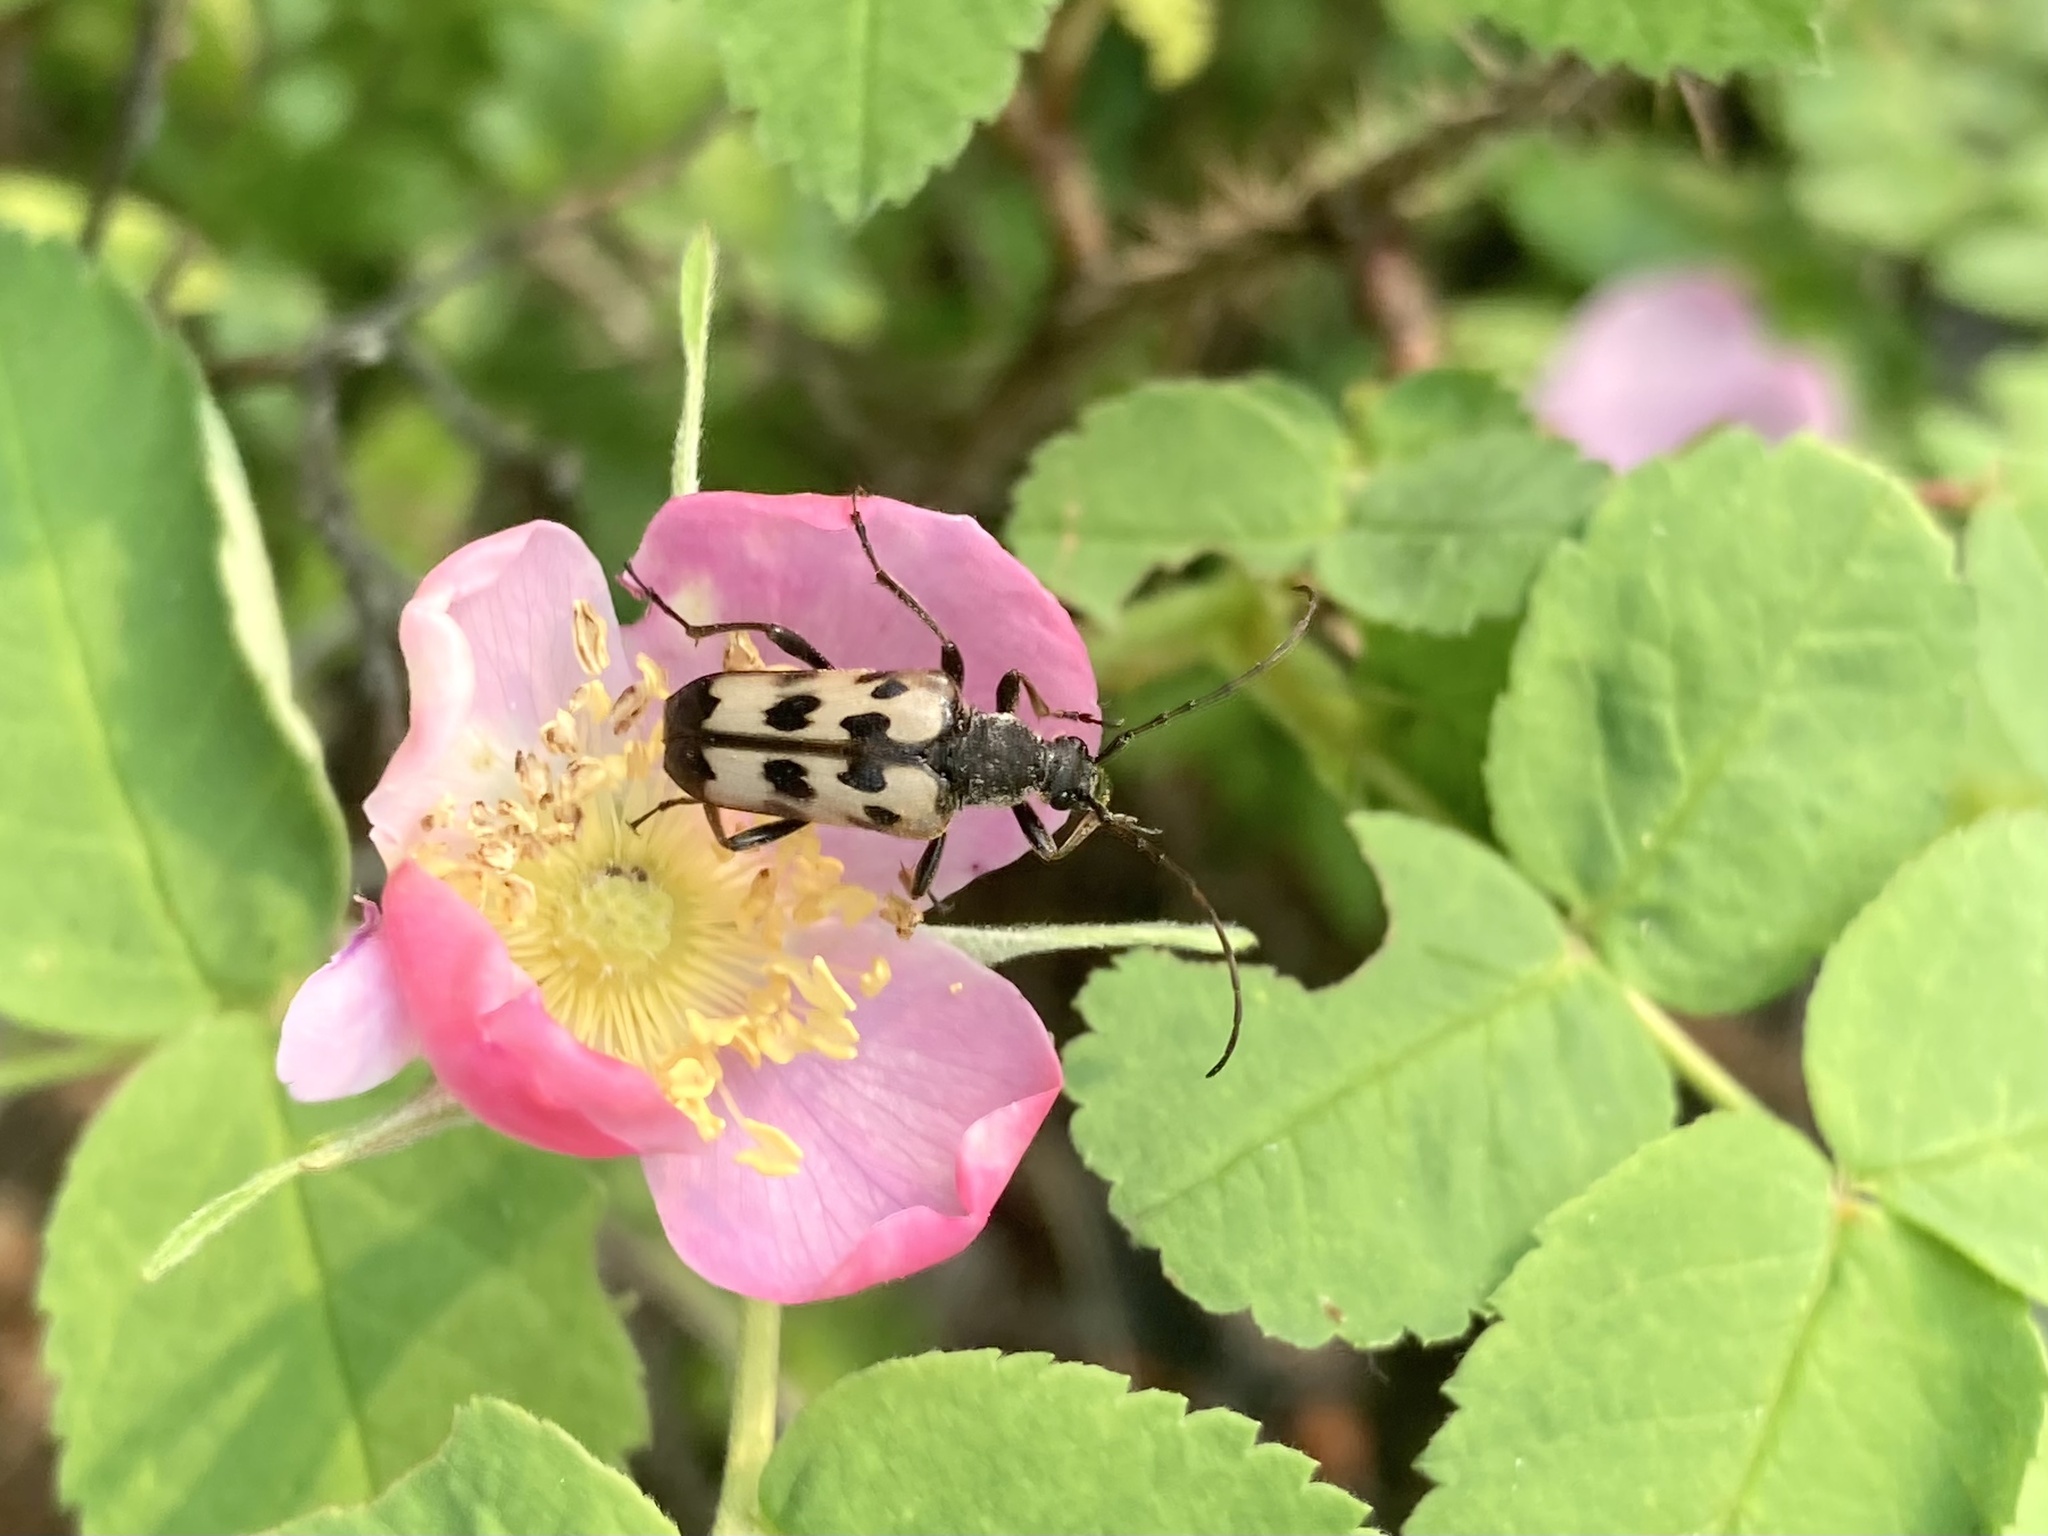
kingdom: Animalia
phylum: Arthropoda
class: Insecta
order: Coleoptera
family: Cerambycidae
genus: Judolia
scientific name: Judolia montivagans
